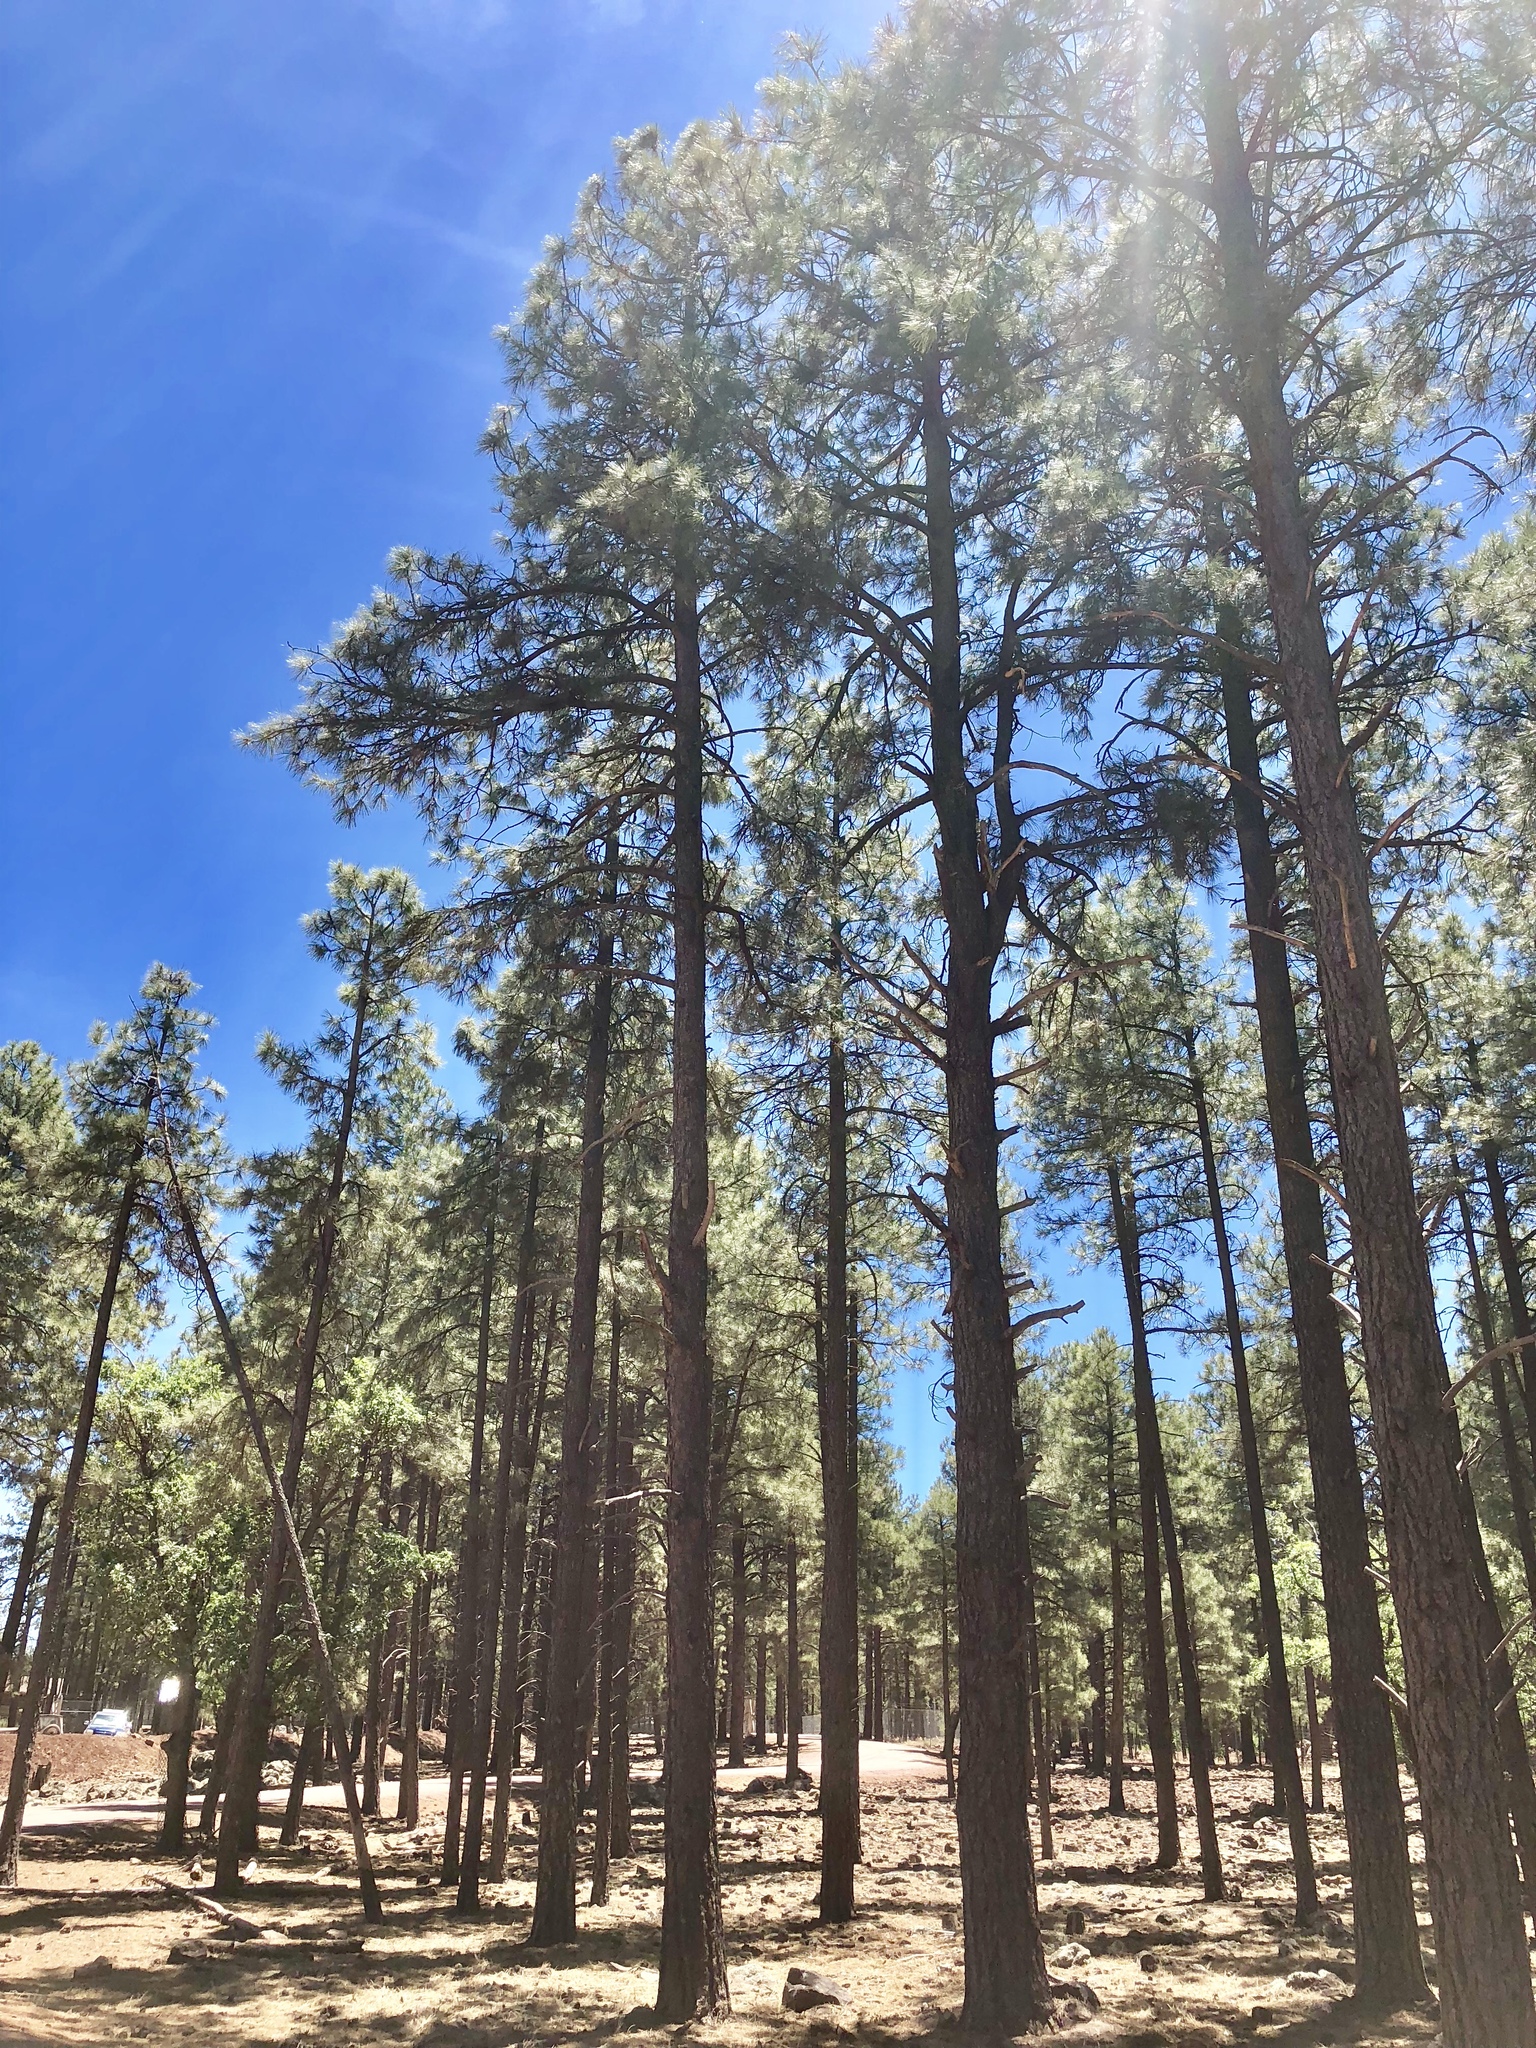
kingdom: Plantae
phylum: Tracheophyta
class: Pinopsida
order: Pinales
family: Pinaceae
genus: Pinus
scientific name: Pinus ponderosa
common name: Western yellow-pine
